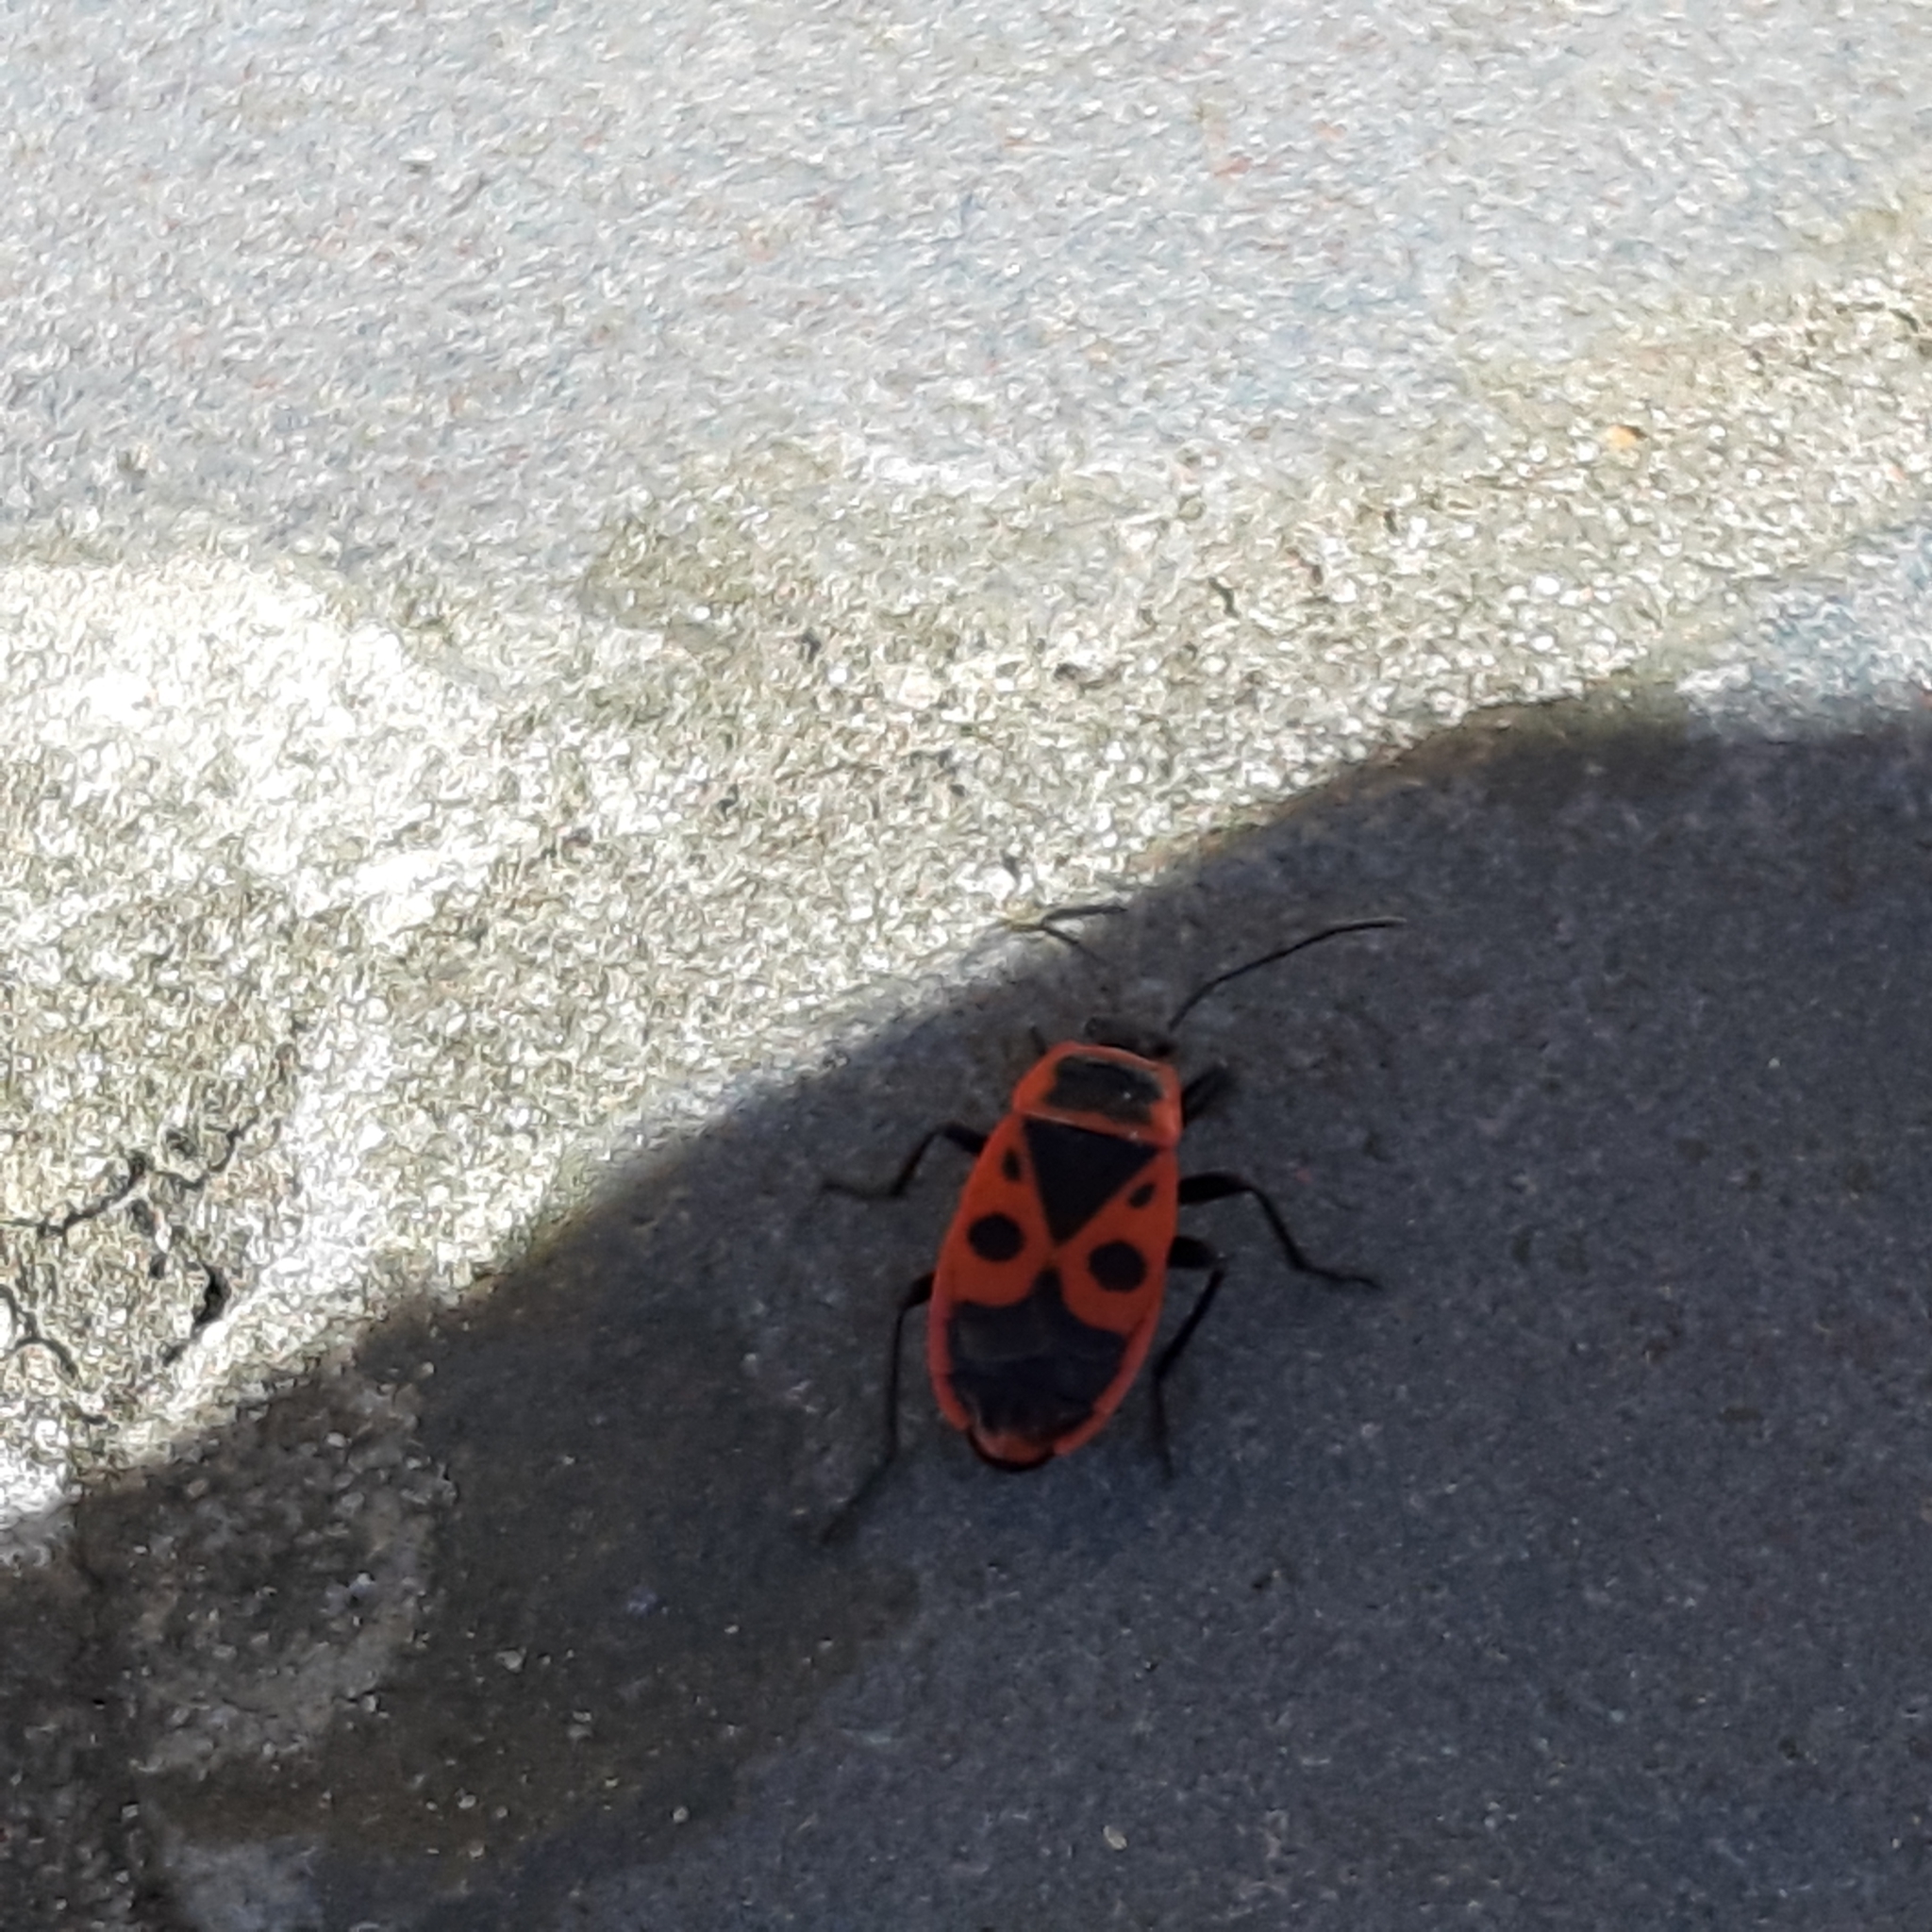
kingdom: Animalia
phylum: Arthropoda
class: Insecta
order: Hemiptera
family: Pyrrhocoridae
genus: Pyrrhocoris
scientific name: Pyrrhocoris apterus
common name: Firebug
